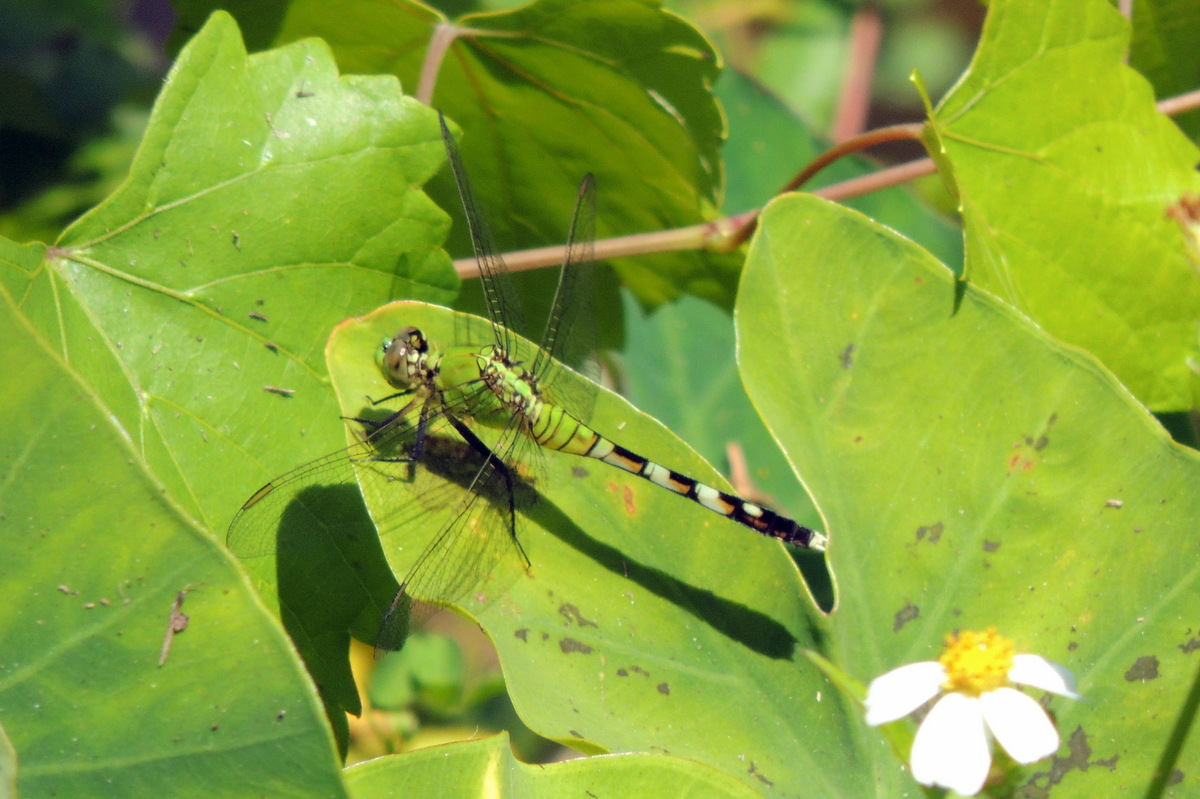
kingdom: Animalia
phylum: Arthropoda
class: Insecta
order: Odonata
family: Libellulidae
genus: Erythemis
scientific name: Erythemis simplicicollis
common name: Eastern pondhawk
